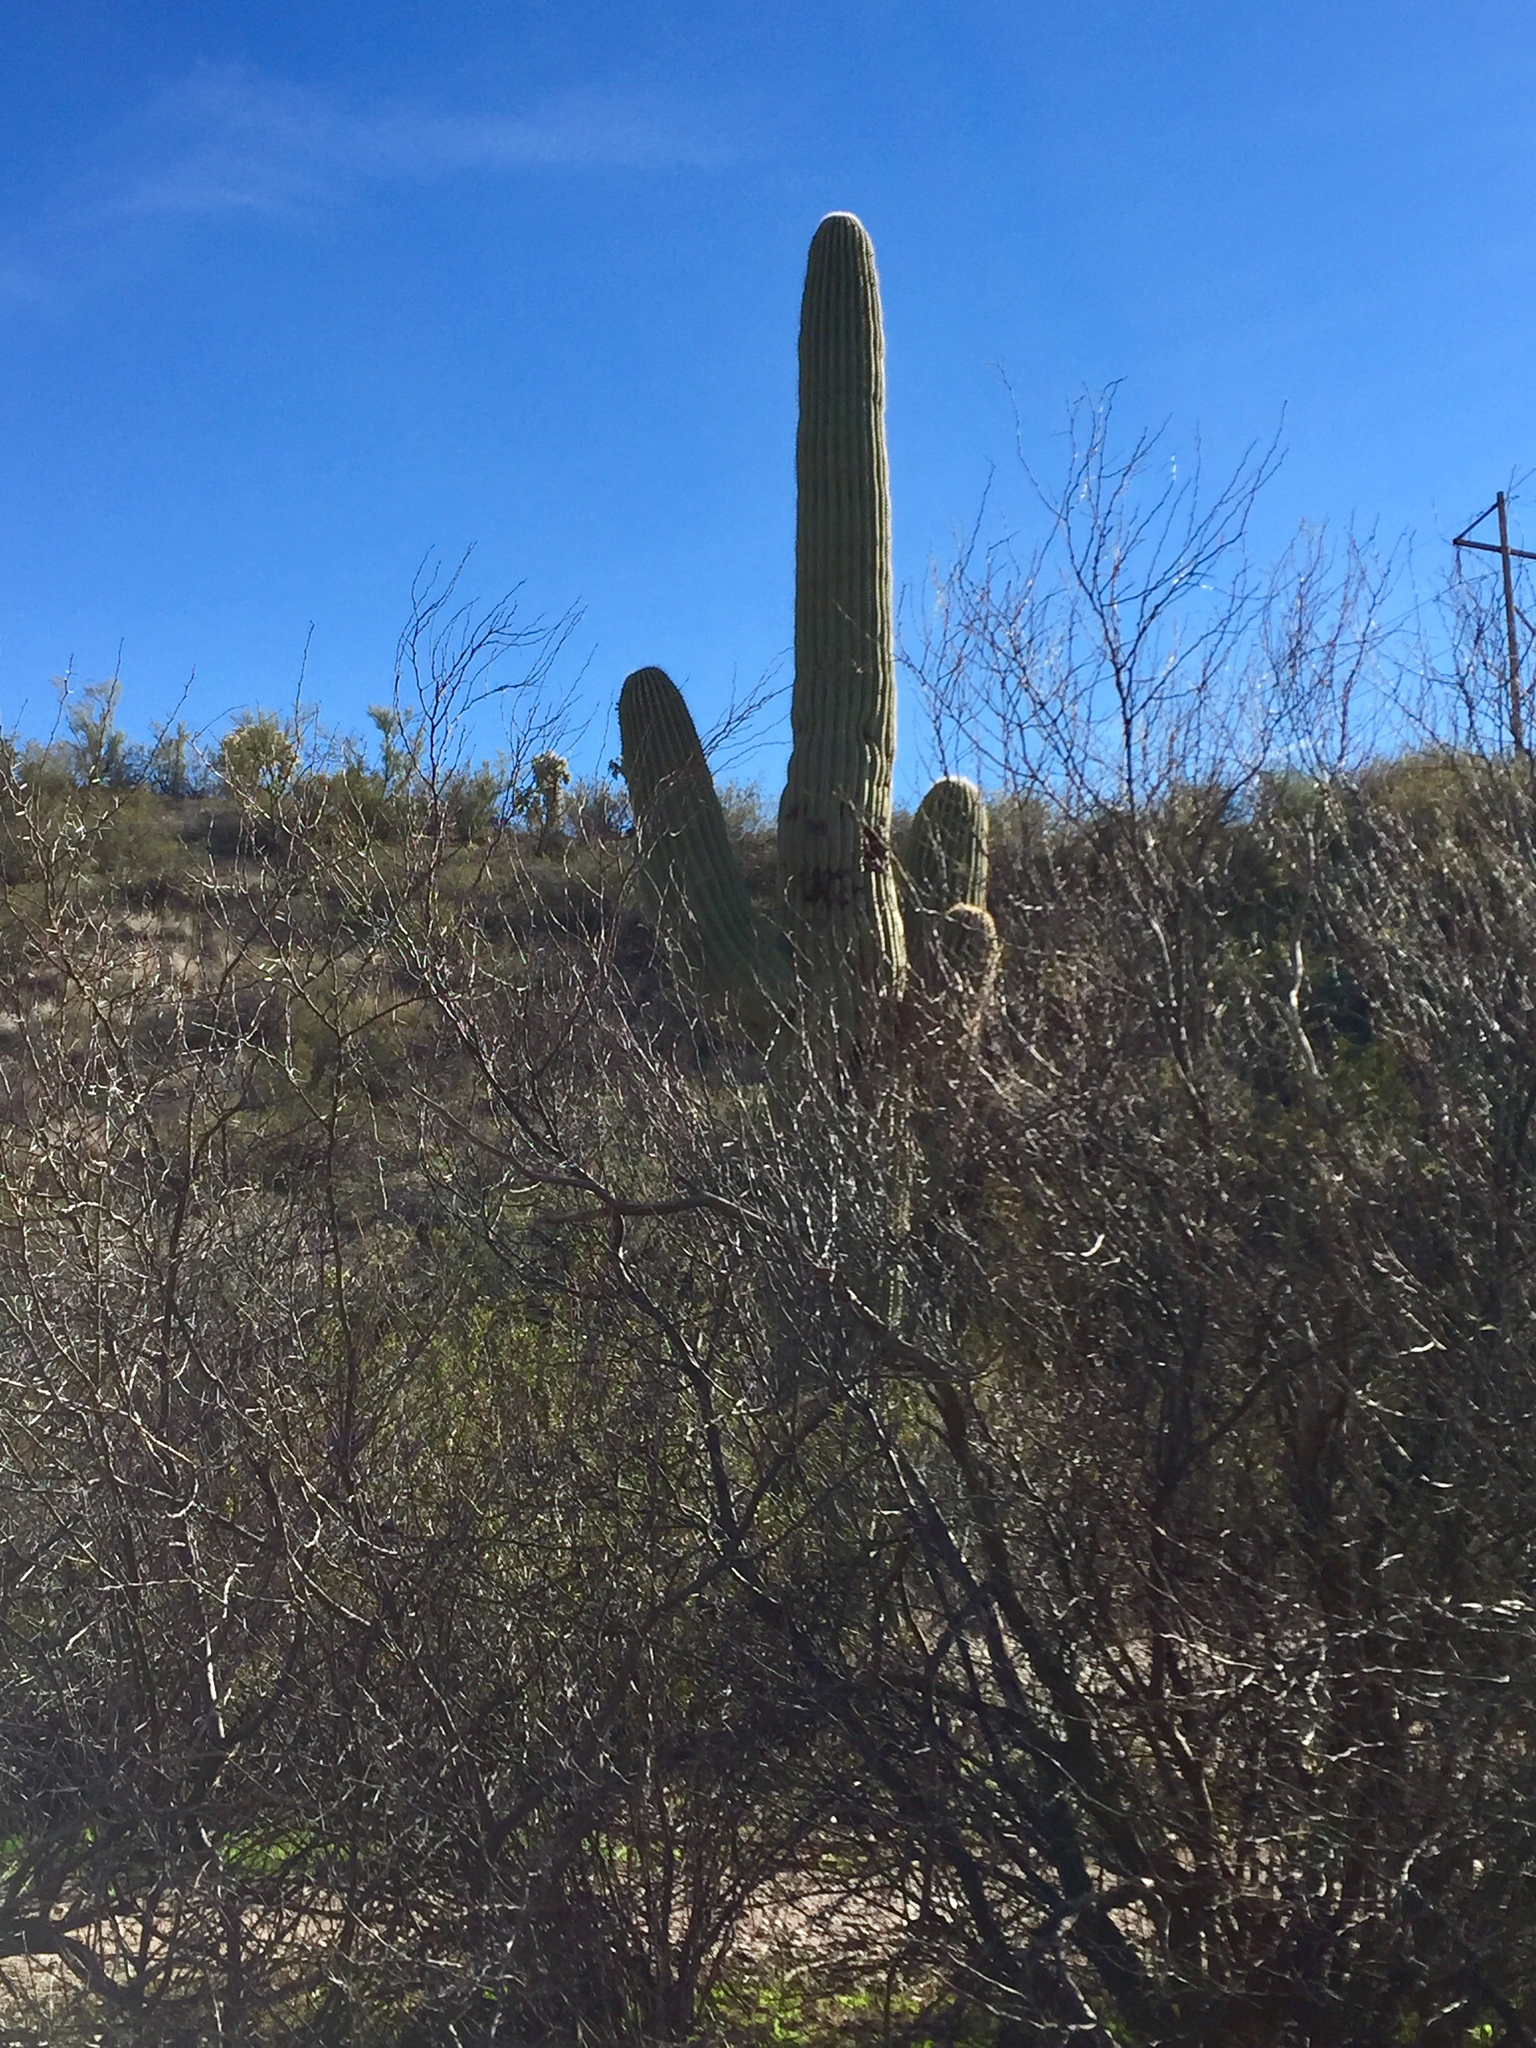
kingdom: Plantae
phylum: Tracheophyta
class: Magnoliopsida
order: Caryophyllales
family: Cactaceae
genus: Carnegiea
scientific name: Carnegiea gigantea
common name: Saguaro
